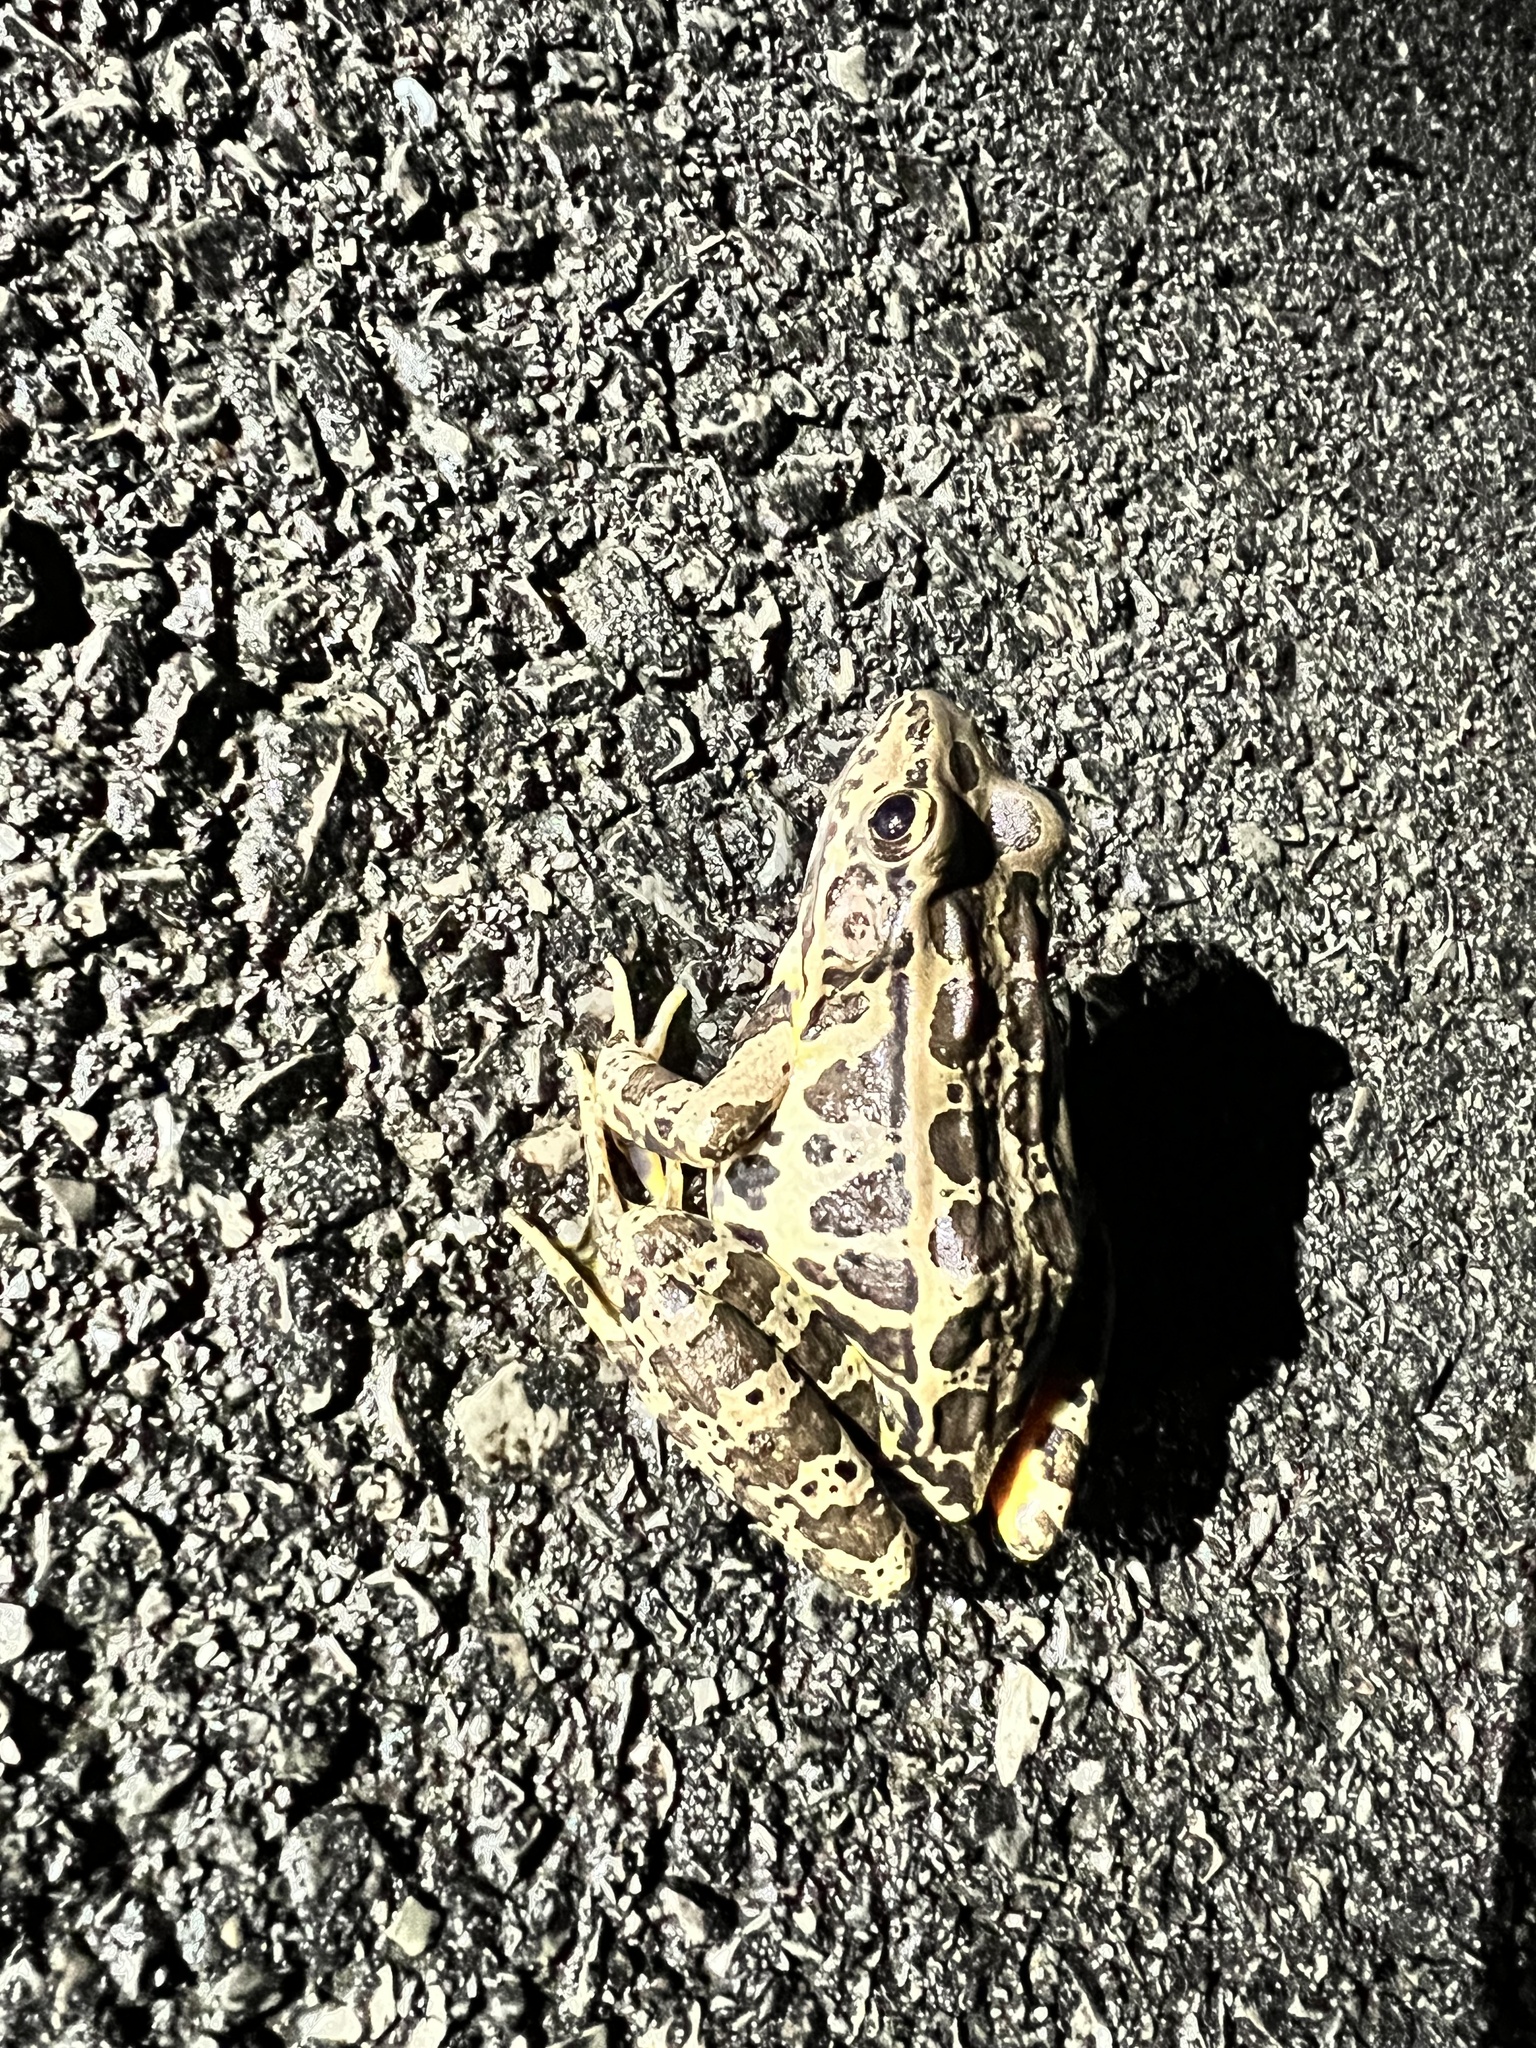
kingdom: Animalia
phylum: Chordata
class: Amphibia
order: Anura
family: Ranidae
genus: Lithobates
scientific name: Lithobates palustris
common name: Pickerel frog
